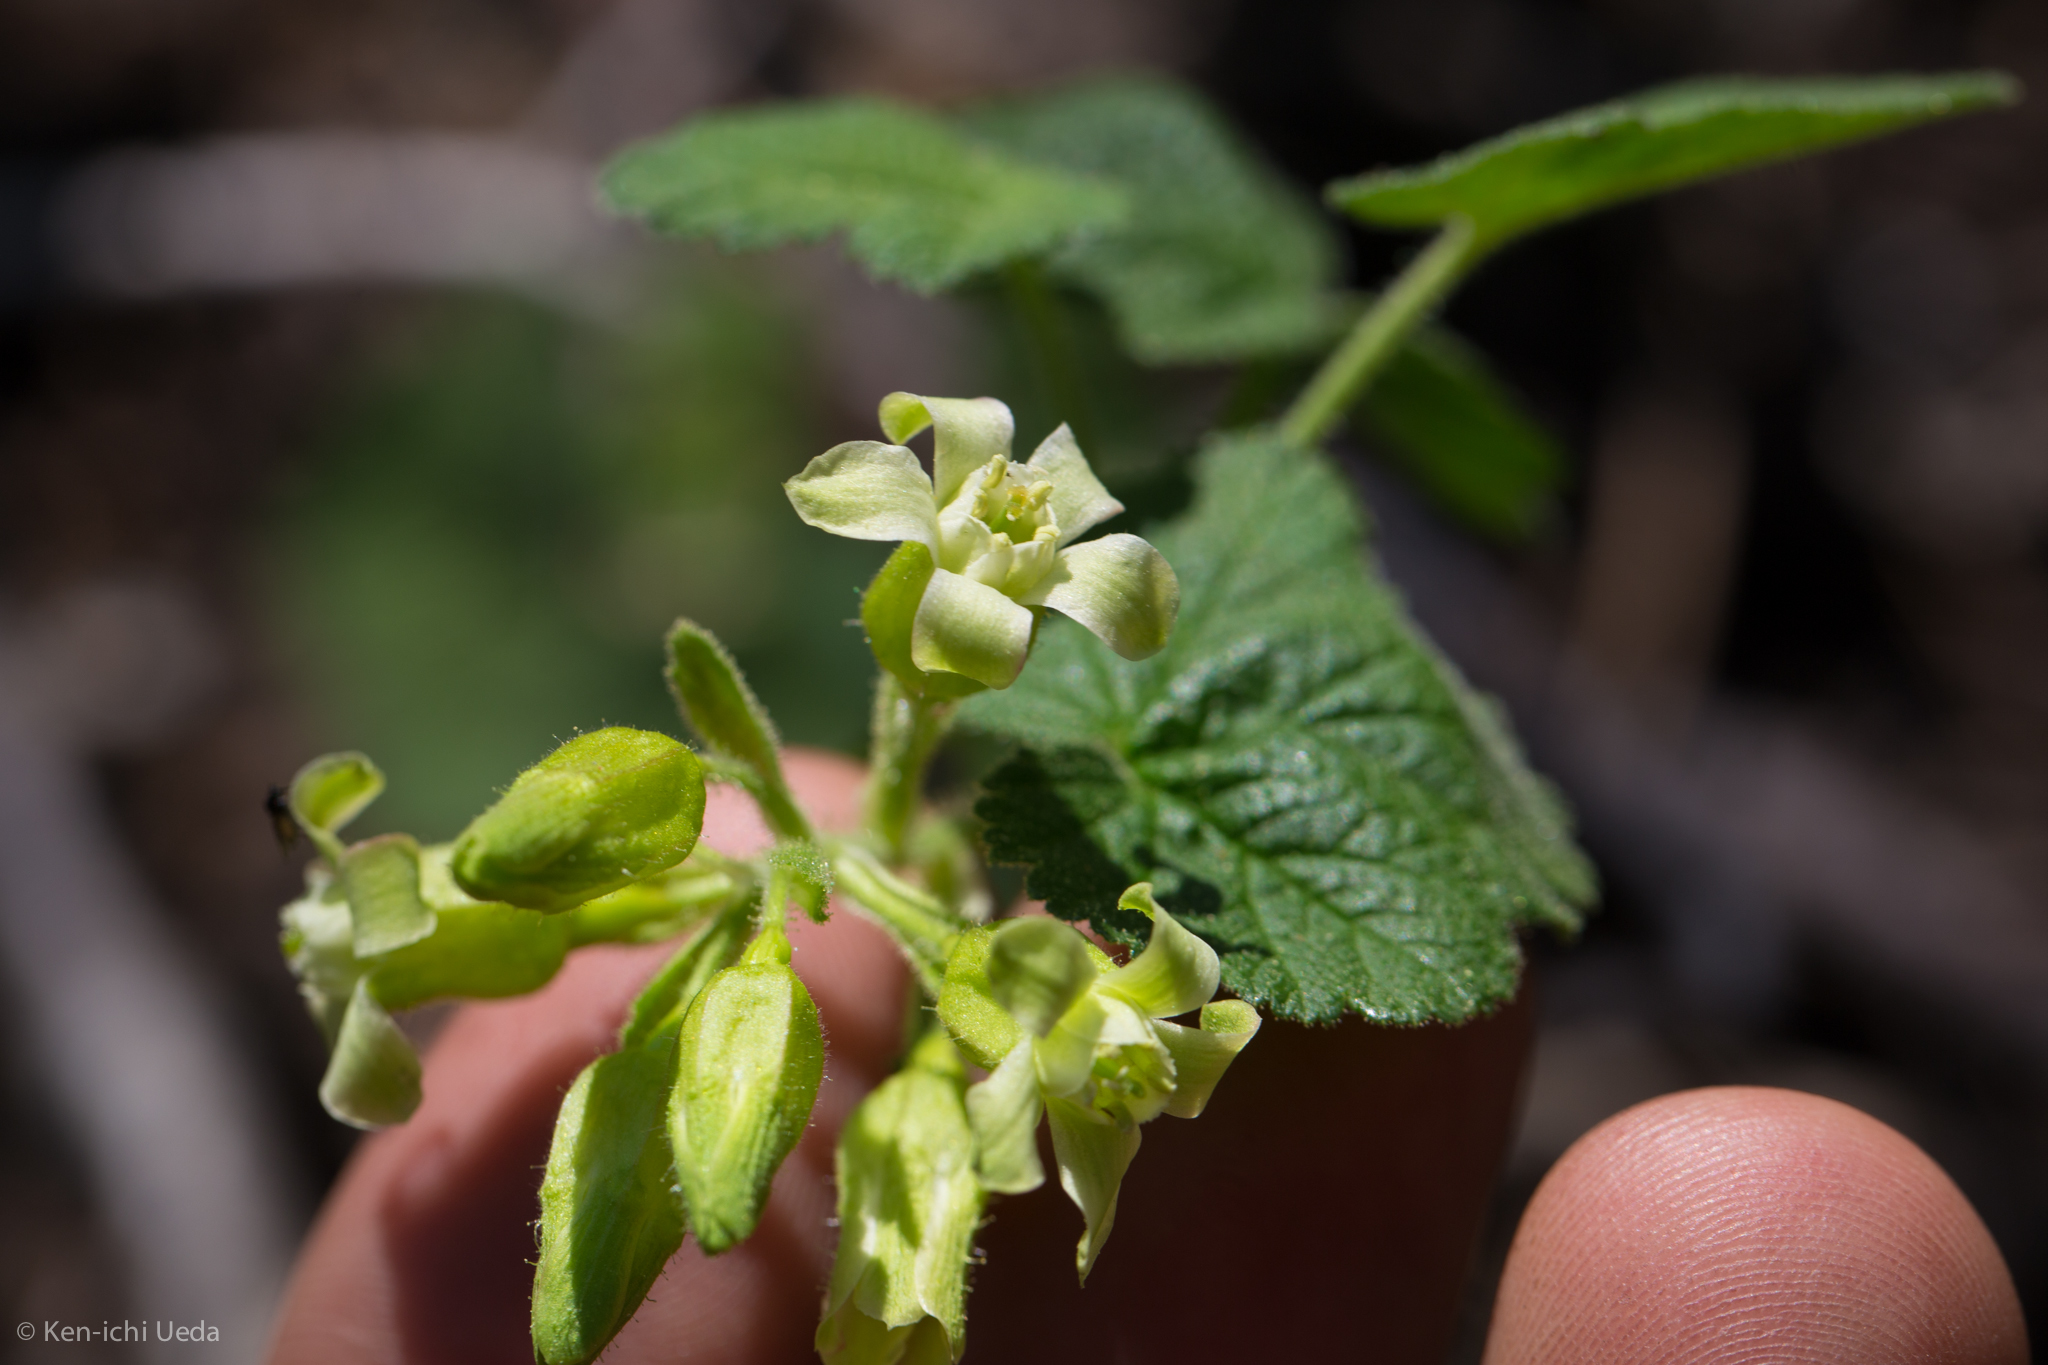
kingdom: Plantae
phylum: Tracheophyta
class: Magnoliopsida
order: Saxifragales
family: Grossulariaceae
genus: Ribes
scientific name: Ribes viscosissimum
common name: Sticky currant
